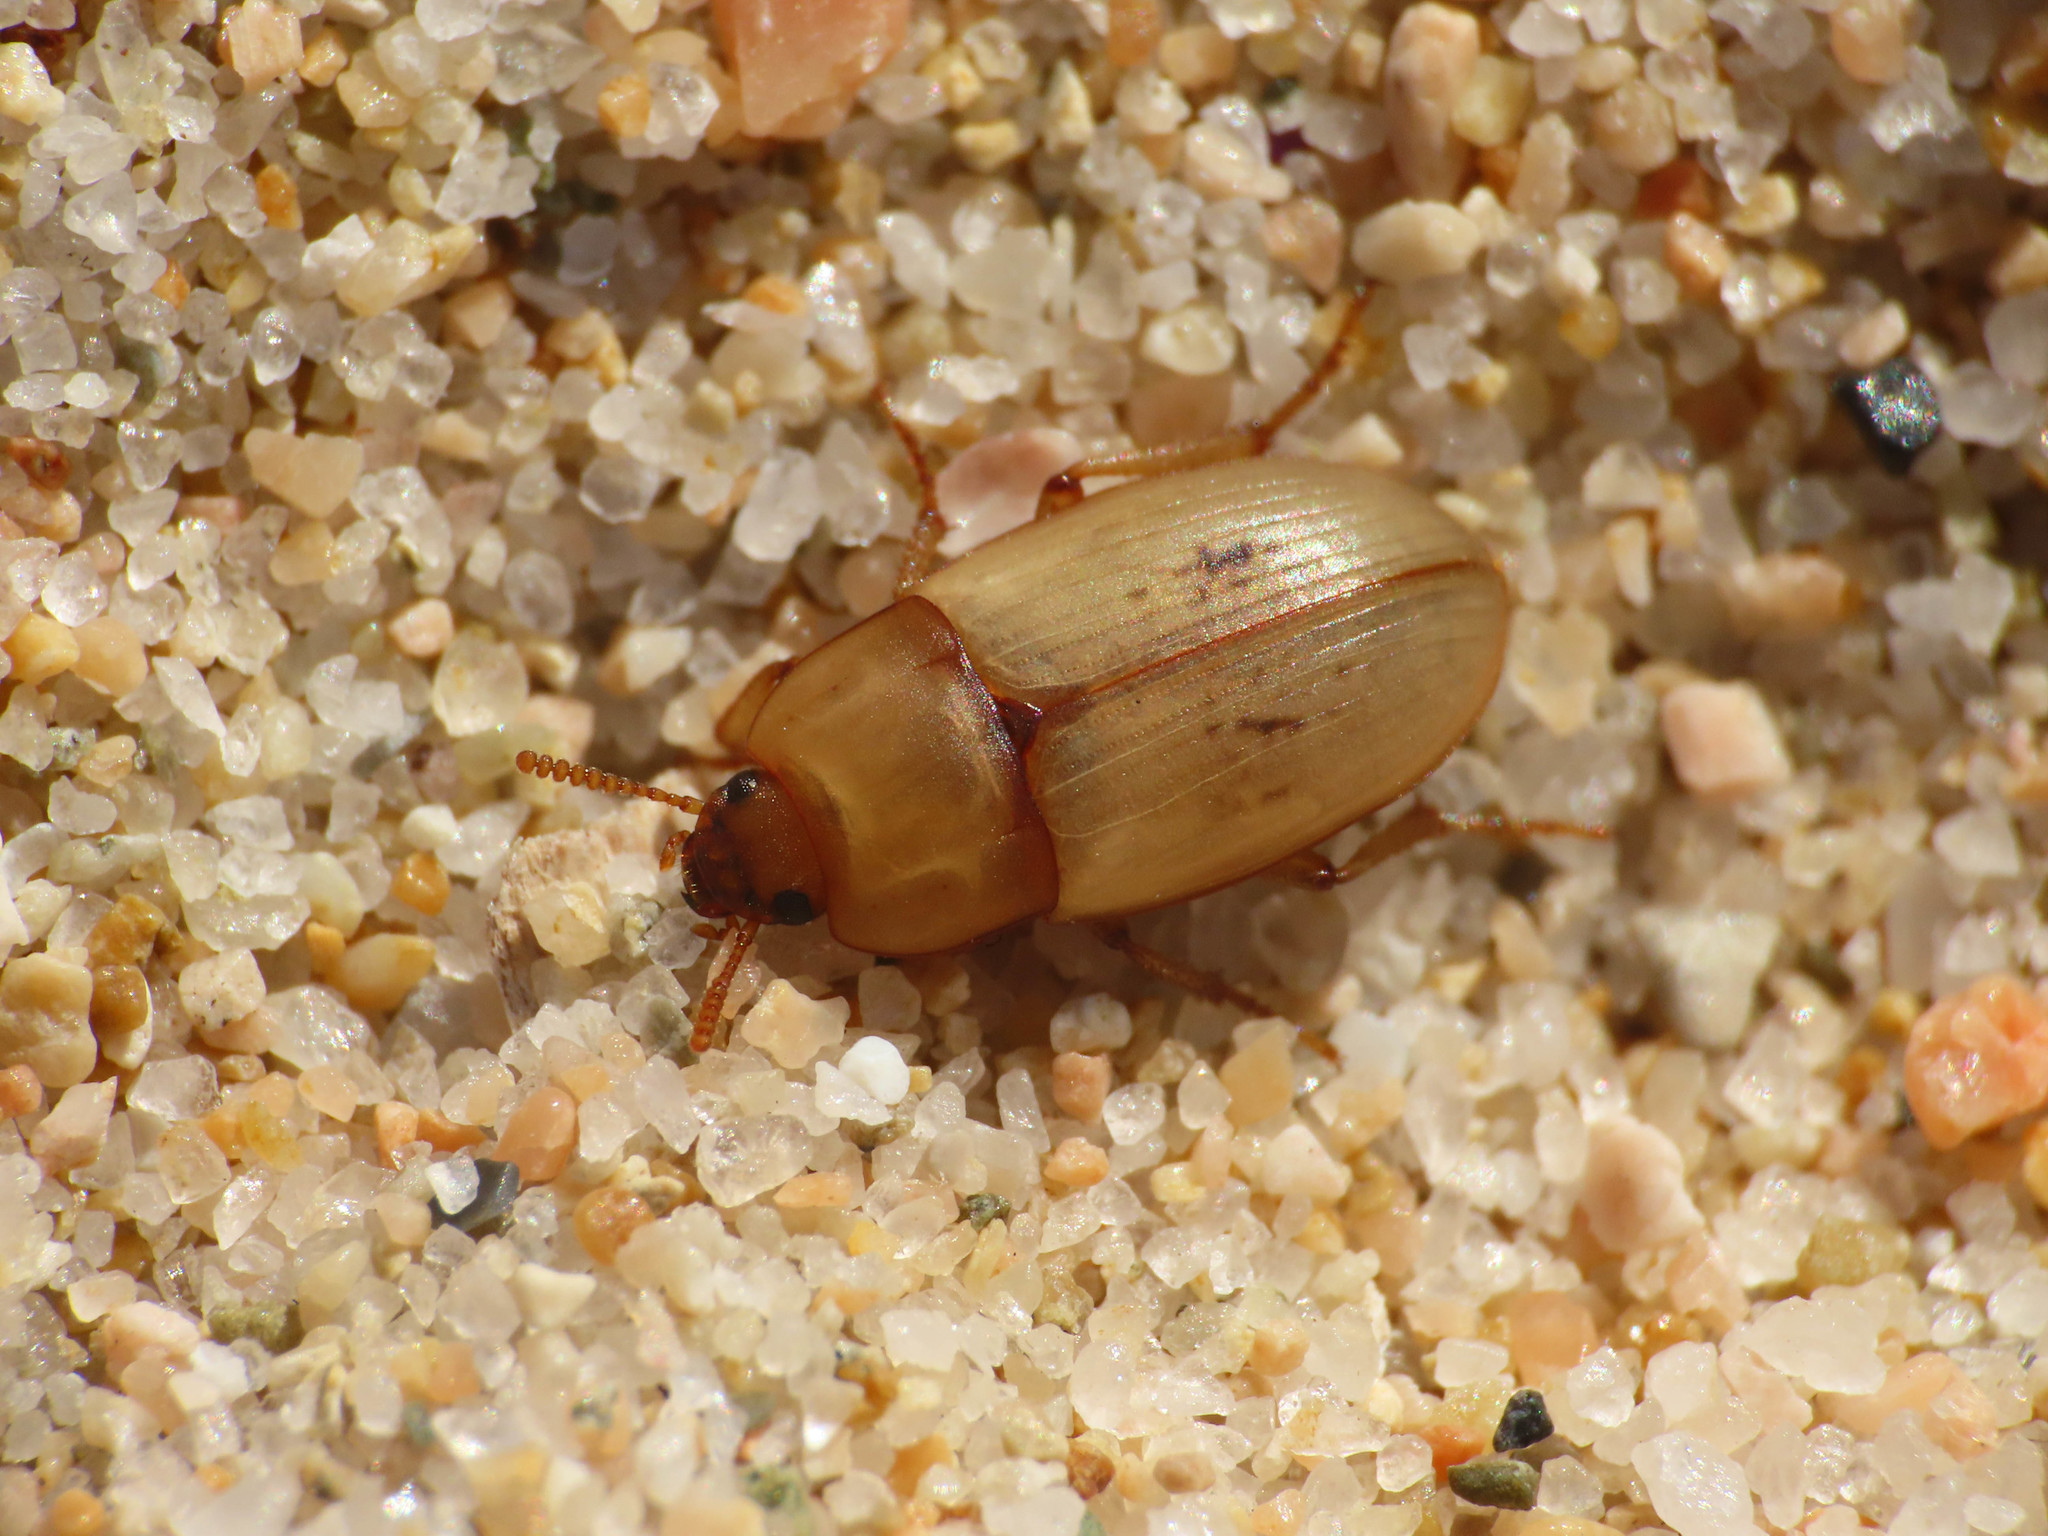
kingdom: Animalia
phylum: Arthropoda
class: Insecta
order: Coleoptera
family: Tenebrionidae
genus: Phaleria
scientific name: Phaleria acuminata
